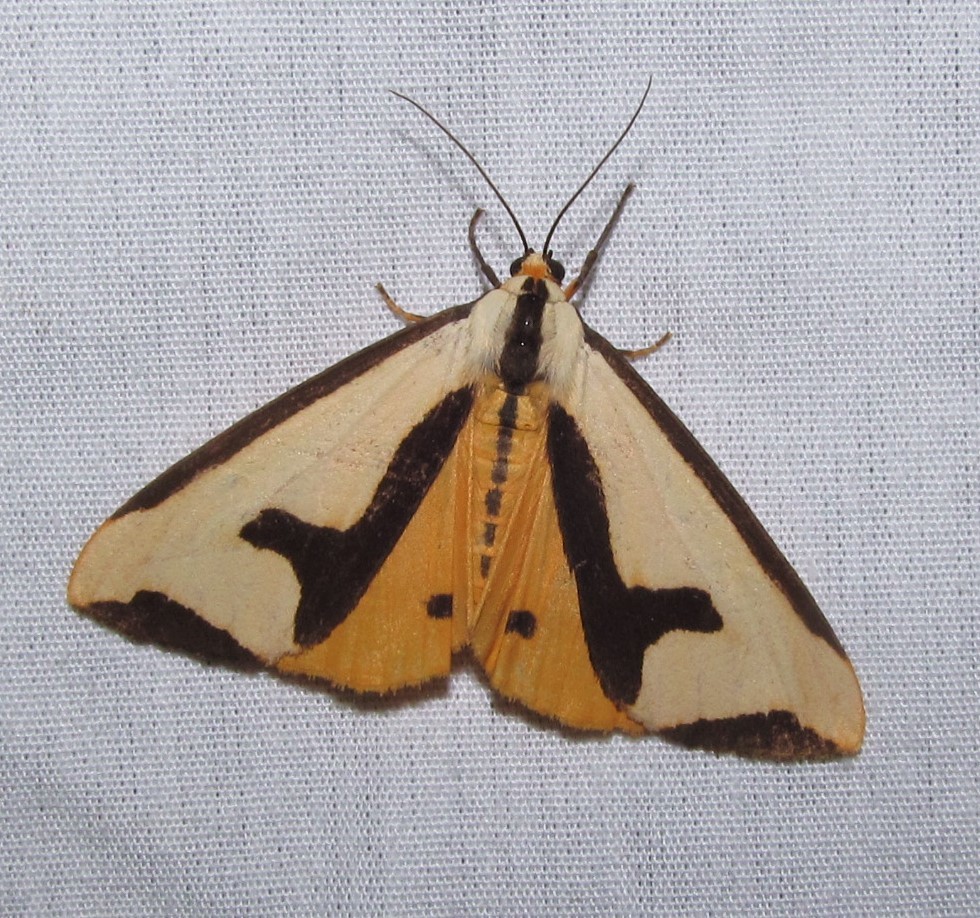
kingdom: Animalia
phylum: Arthropoda
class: Insecta
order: Lepidoptera
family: Erebidae
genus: Haploa
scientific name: Haploa clymene
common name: Clymene moth
